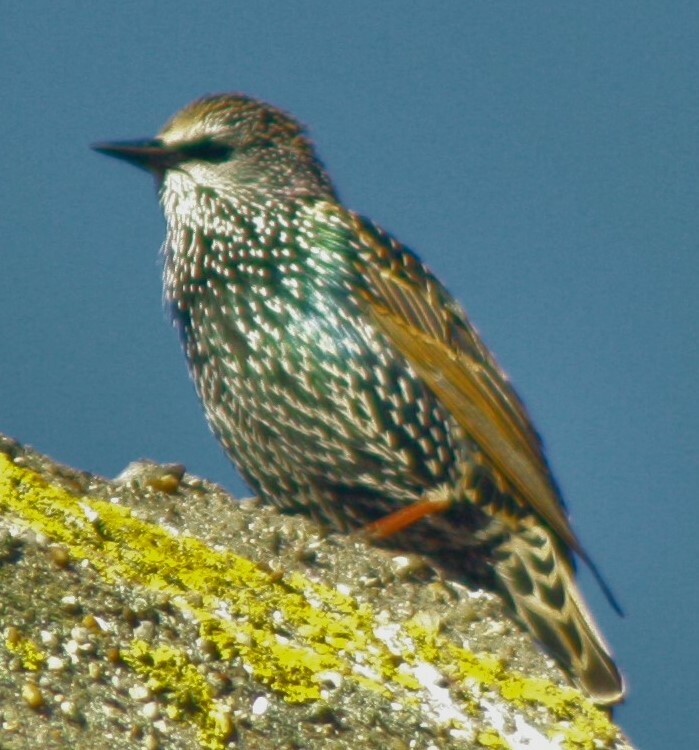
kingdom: Animalia
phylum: Chordata
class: Aves
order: Passeriformes
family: Sturnidae
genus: Sturnus
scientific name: Sturnus vulgaris
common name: Common starling
